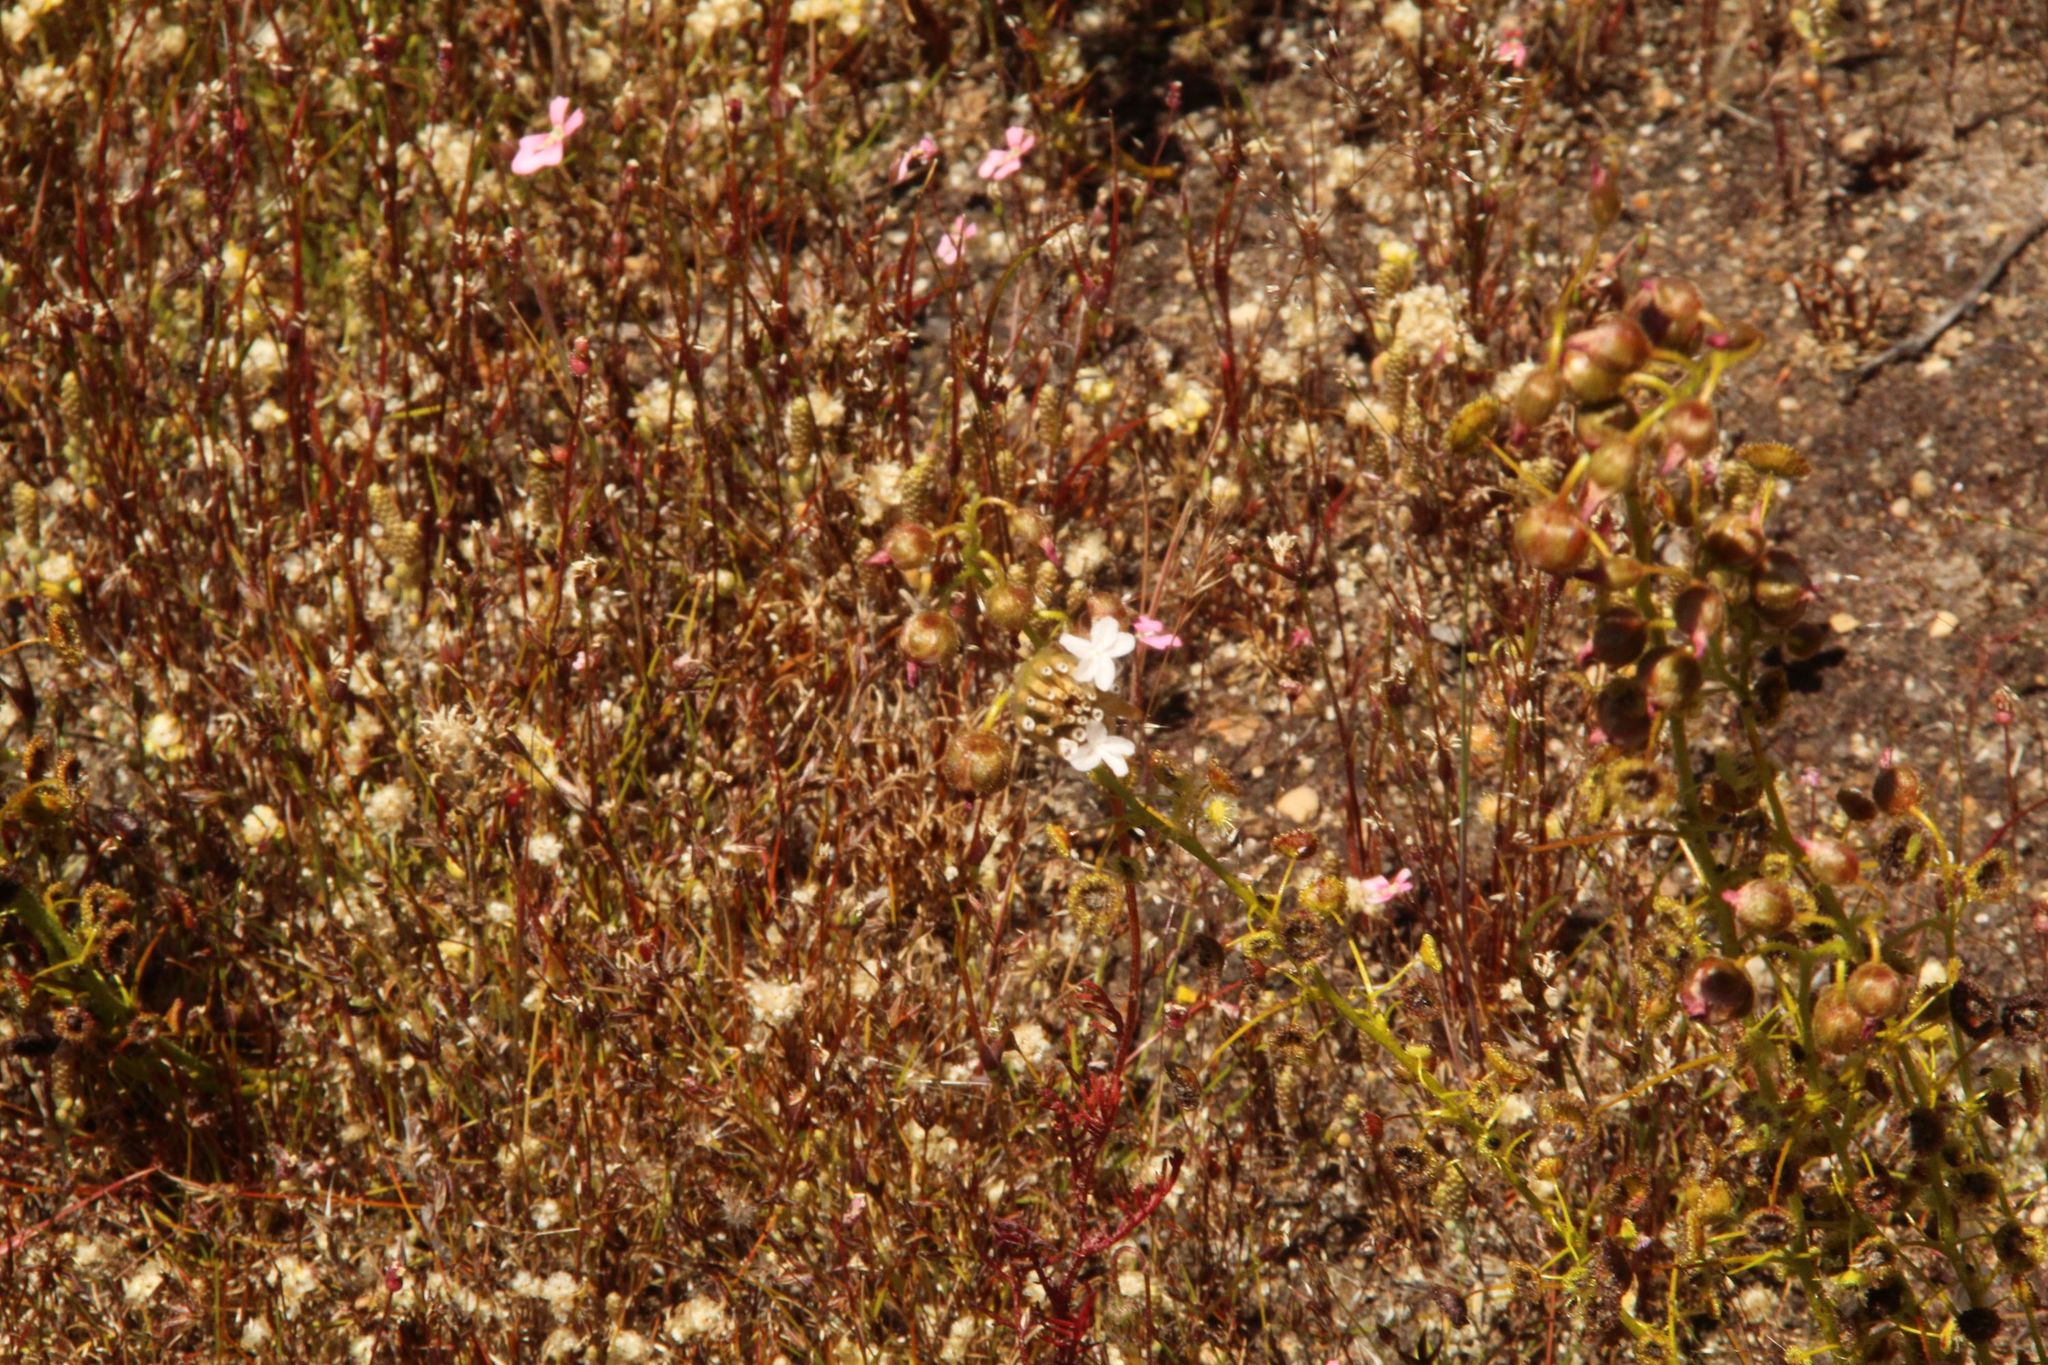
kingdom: Plantae
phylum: Tracheophyta
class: Magnoliopsida
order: Caryophyllales
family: Droseraceae
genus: Drosera
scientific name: Drosera stricticaulis
